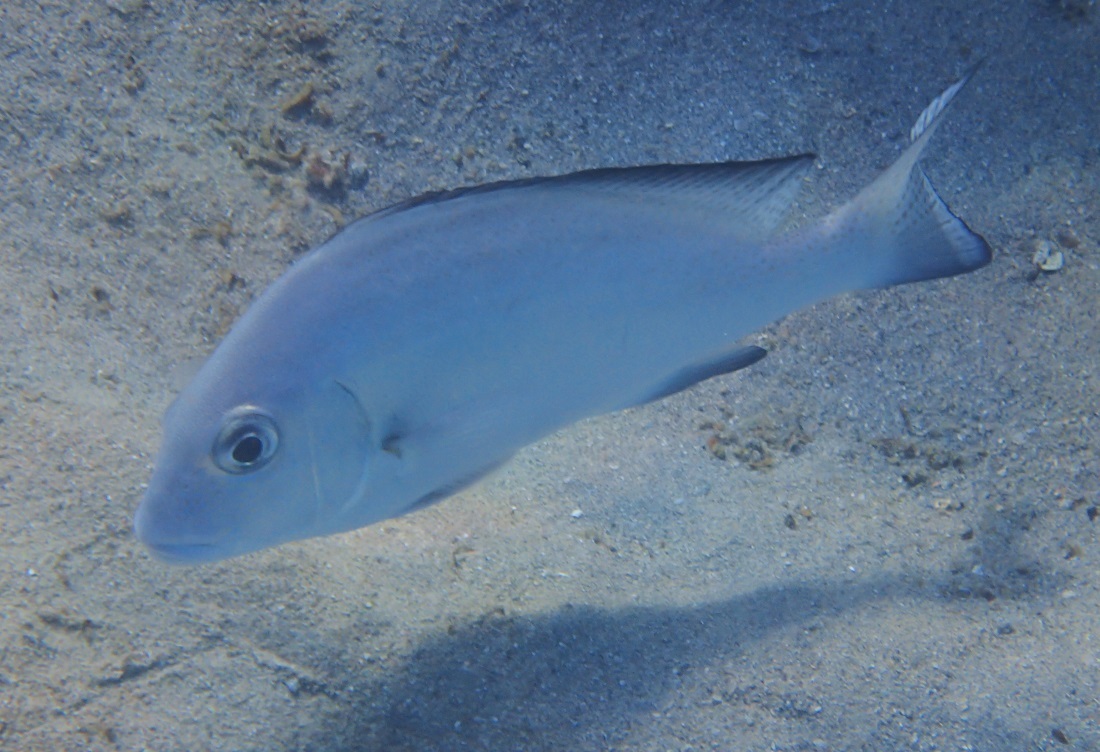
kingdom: Animalia
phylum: Chordata
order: Perciformes
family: Haemulidae
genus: Diagramma
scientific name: Diagramma pictum
